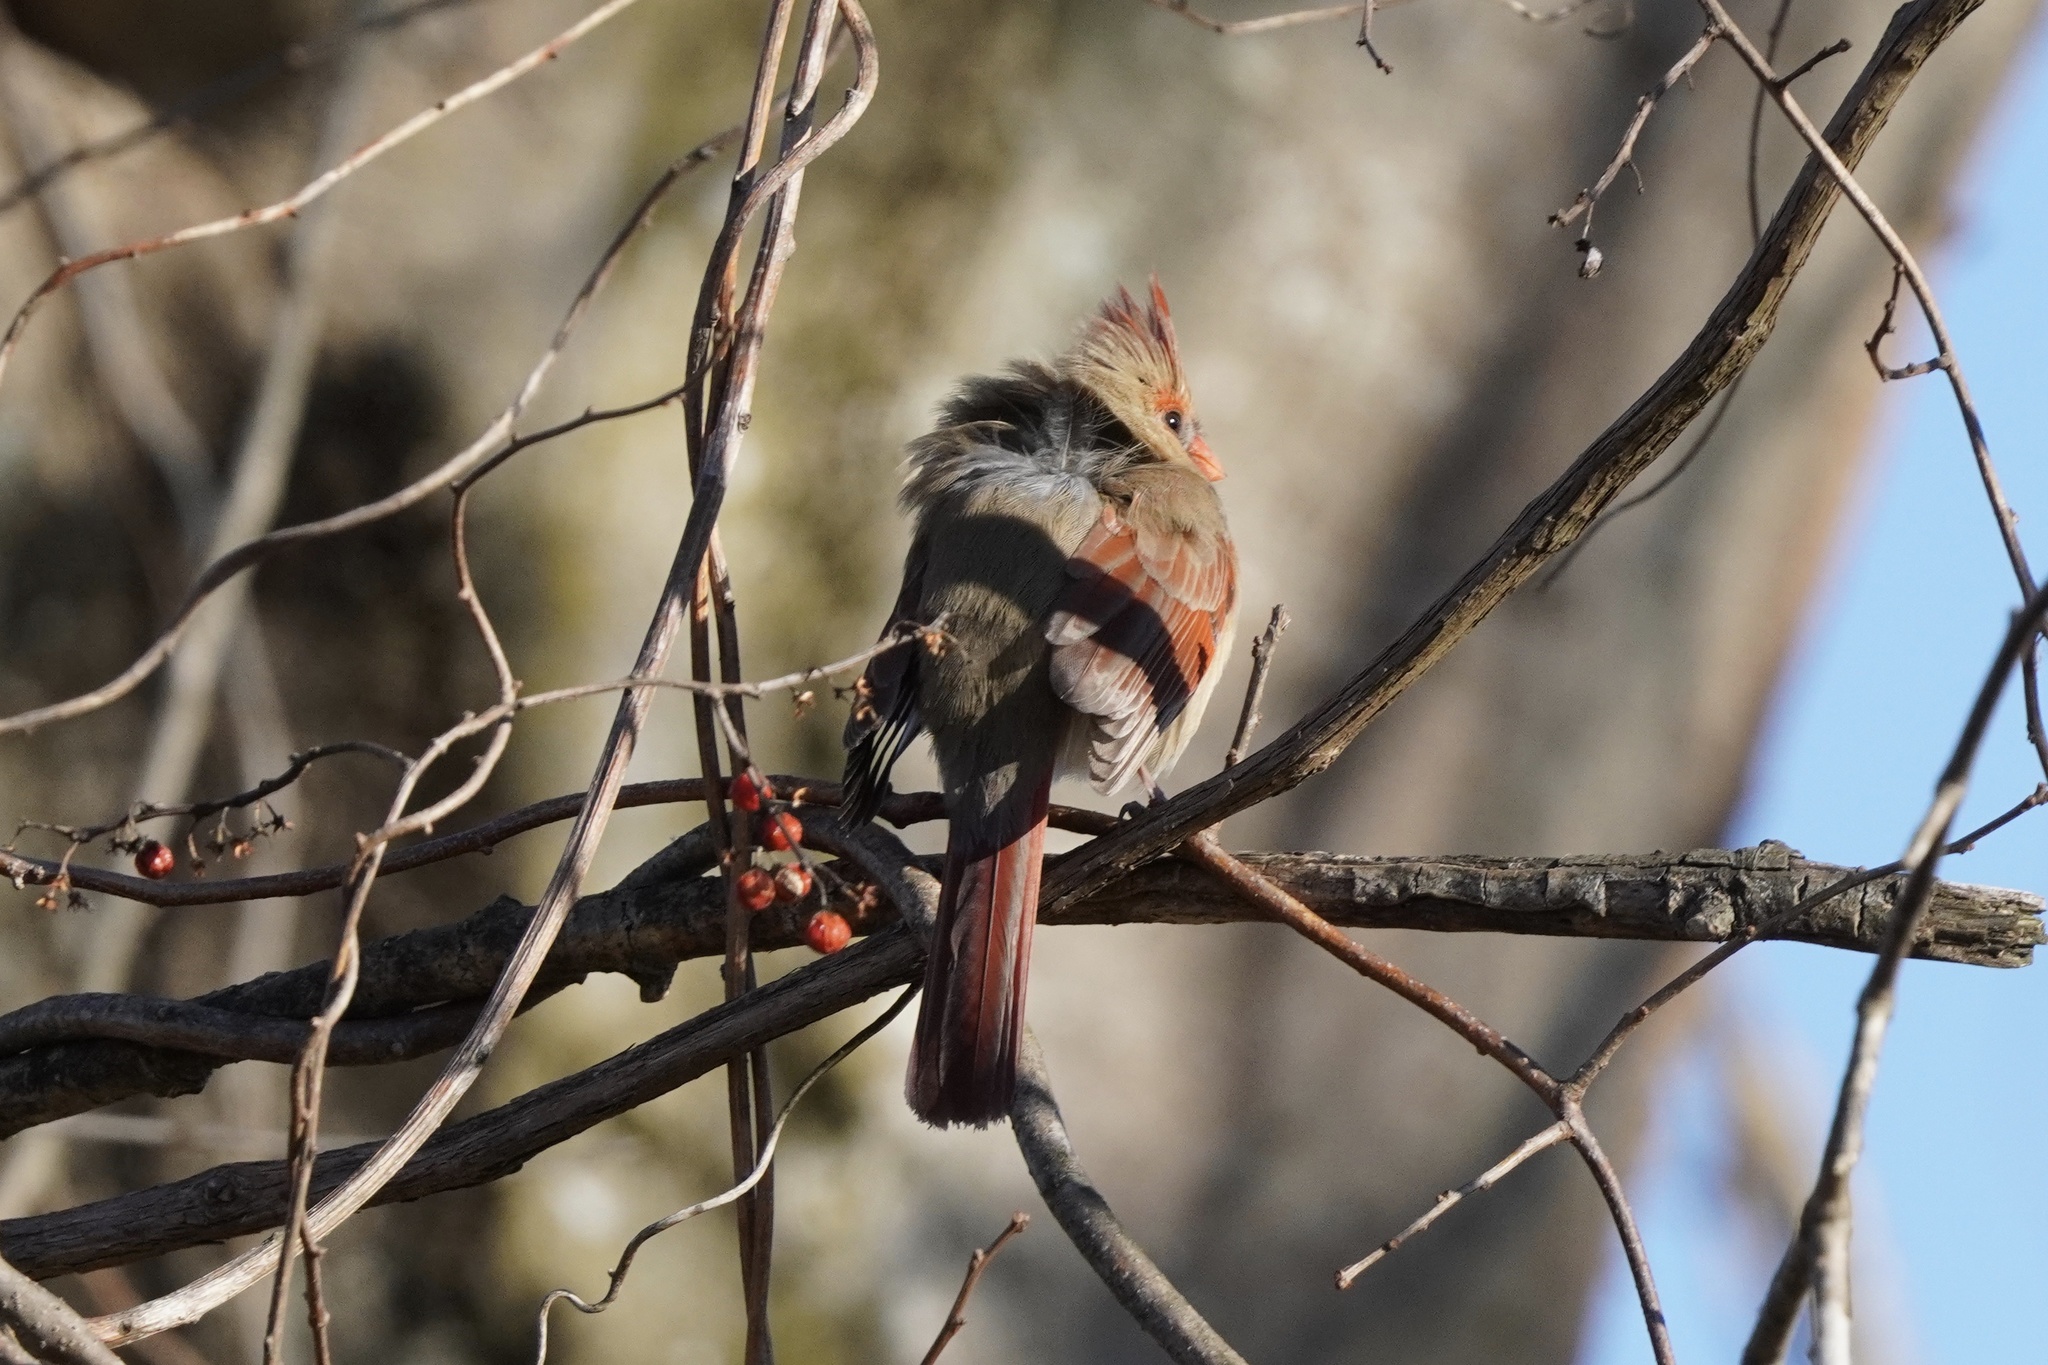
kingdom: Animalia
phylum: Chordata
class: Aves
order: Passeriformes
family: Cardinalidae
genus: Cardinalis
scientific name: Cardinalis cardinalis
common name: Northern cardinal
